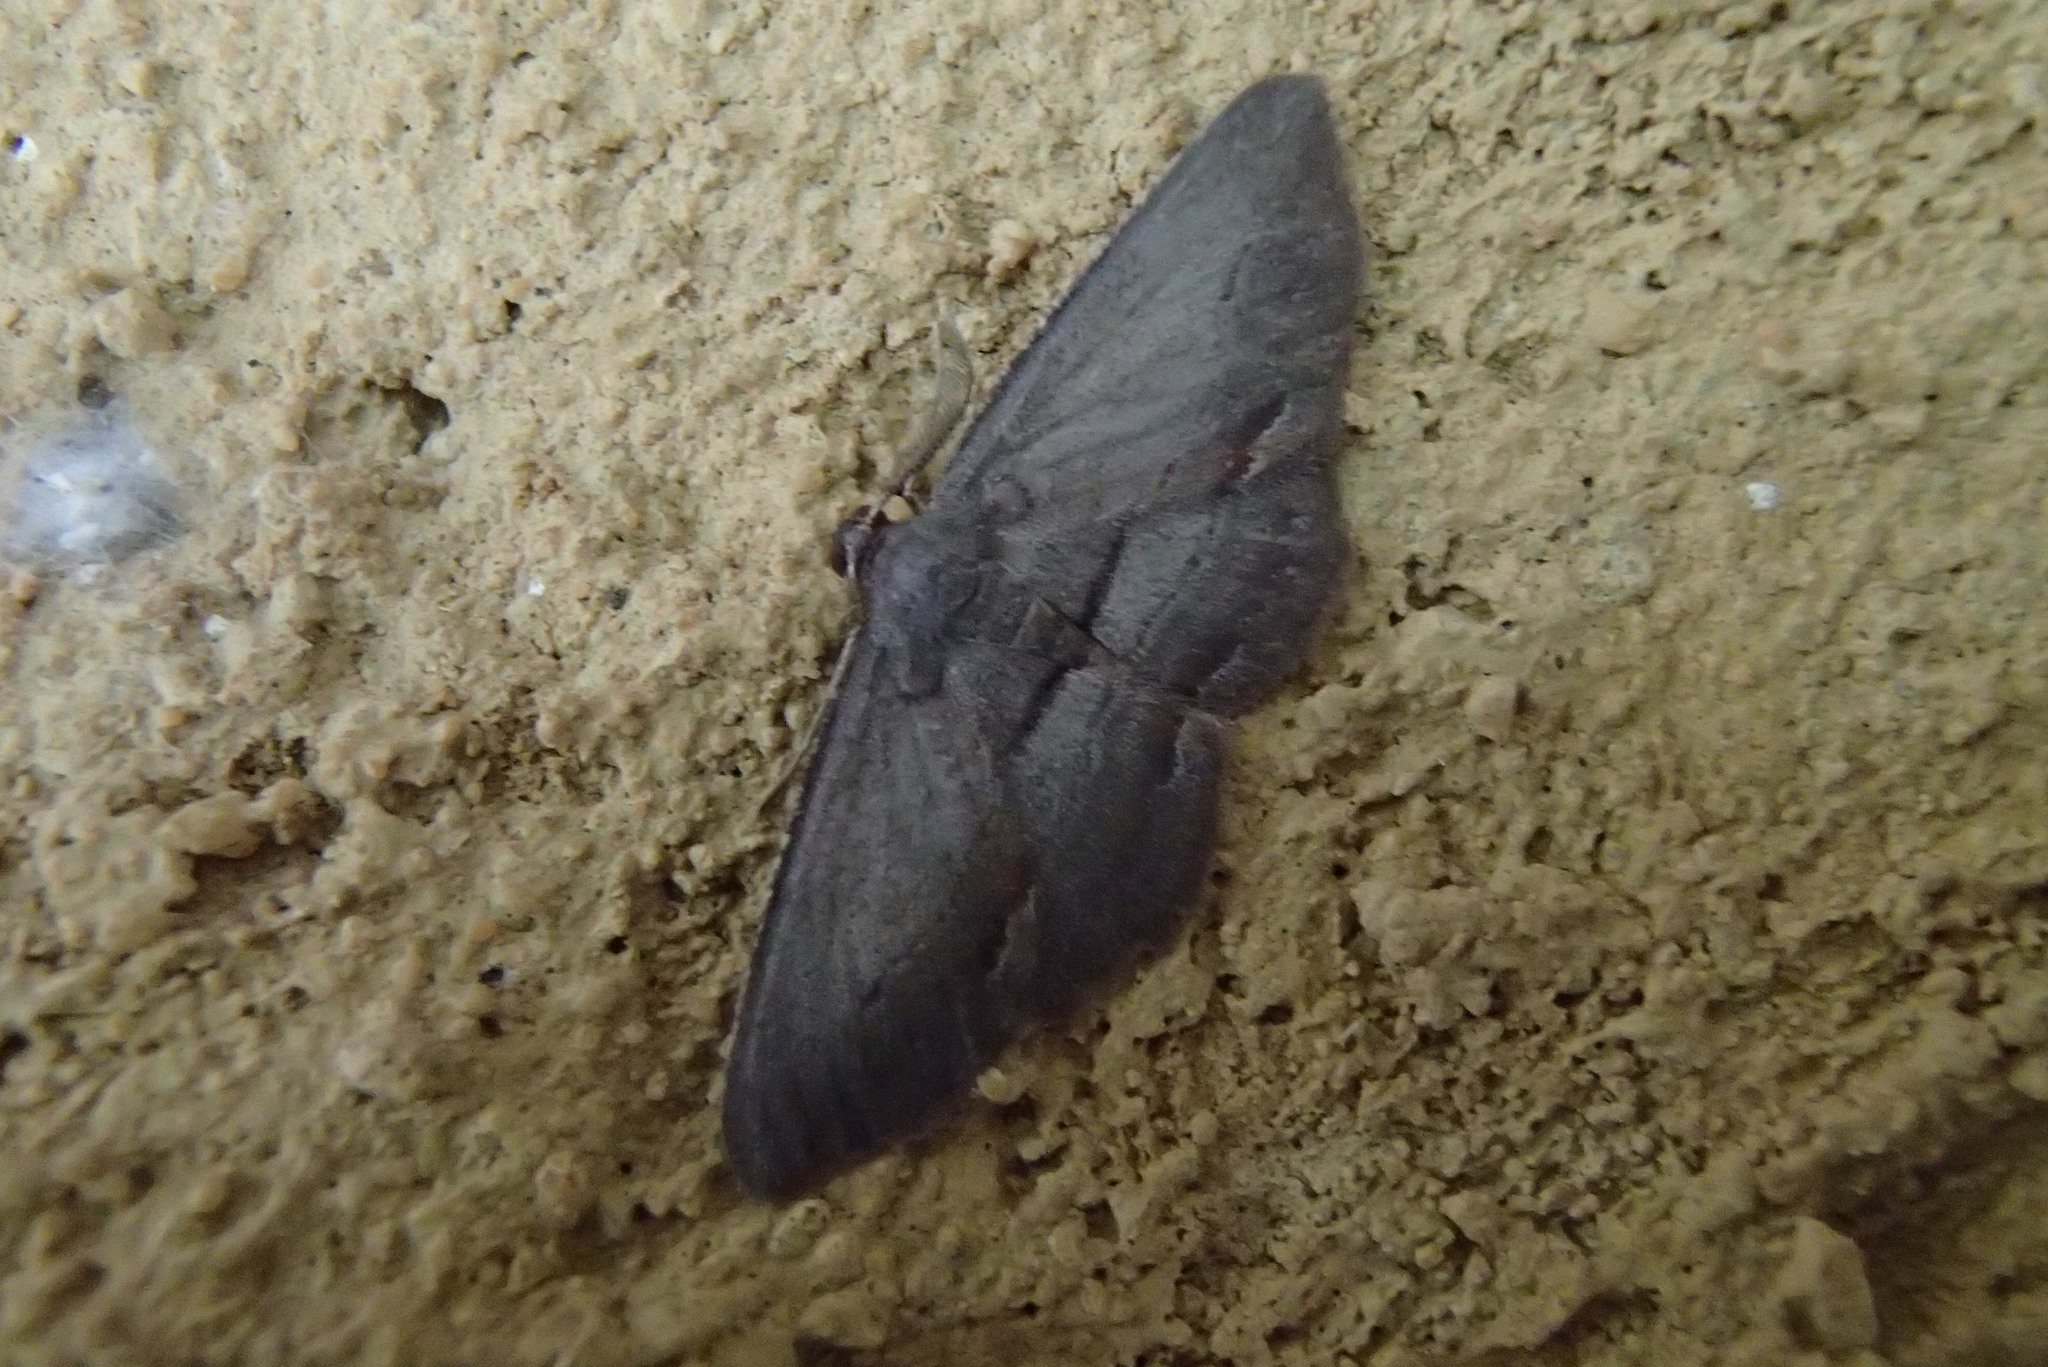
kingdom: Animalia
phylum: Arthropoda
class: Insecta
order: Lepidoptera
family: Geometridae
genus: Hypomecis
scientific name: Hypomecis pallidiscaria
